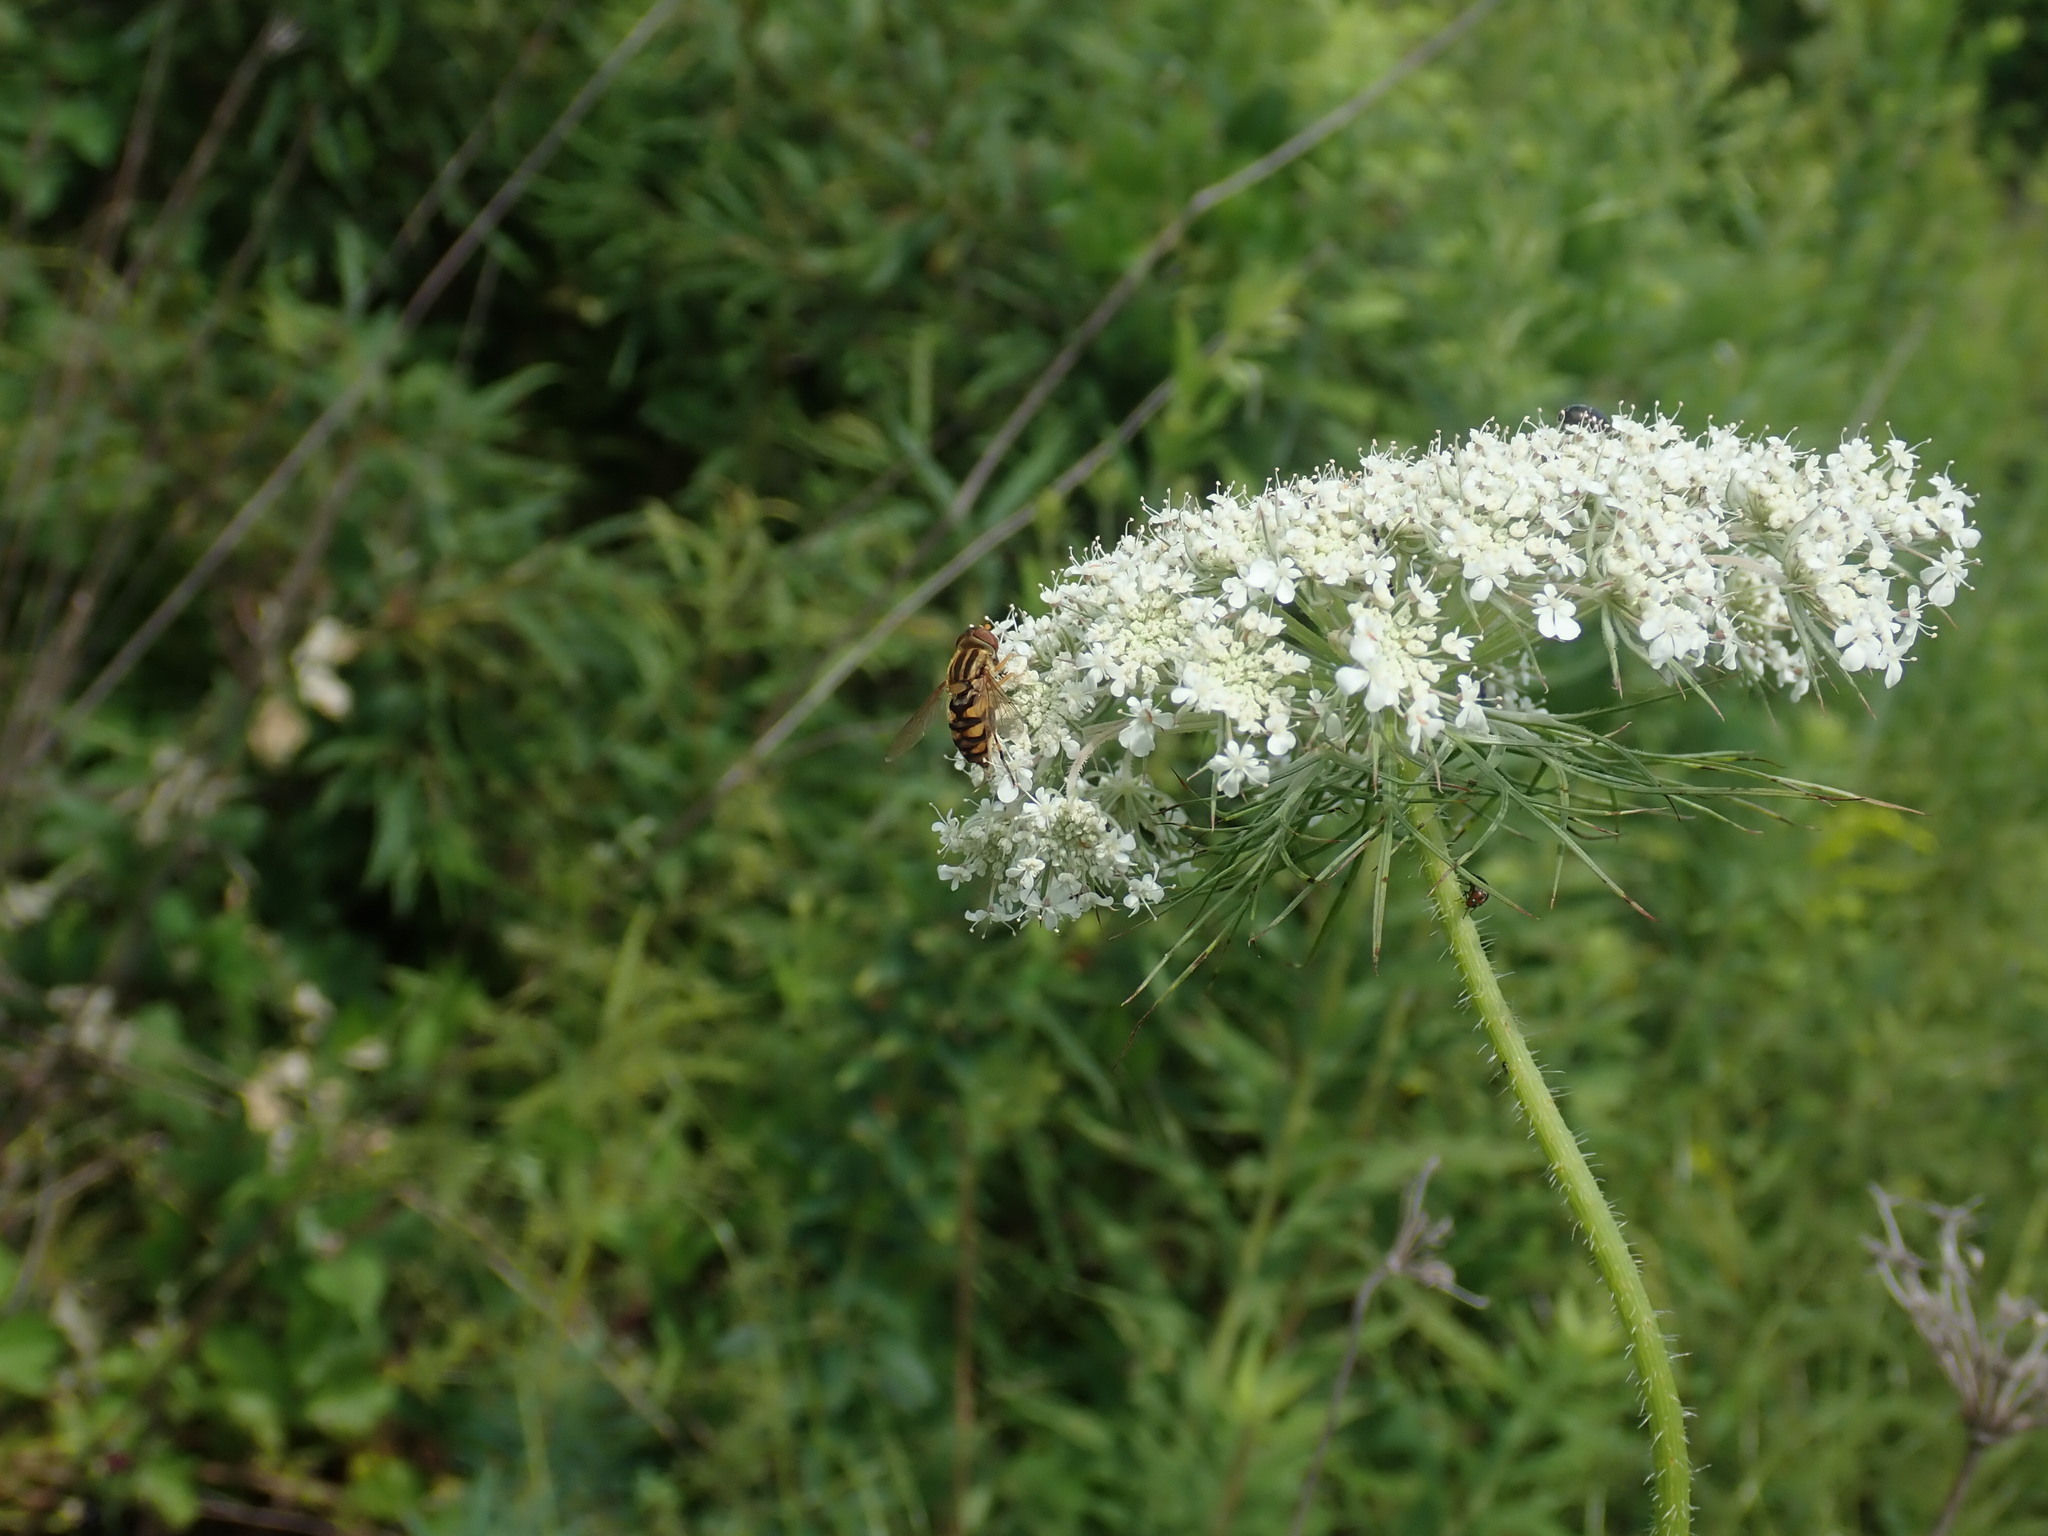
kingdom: Animalia
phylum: Arthropoda
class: Insecta
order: Diptera
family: Syrphidae
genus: Parhelophilus
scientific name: Parhelophilus integer
